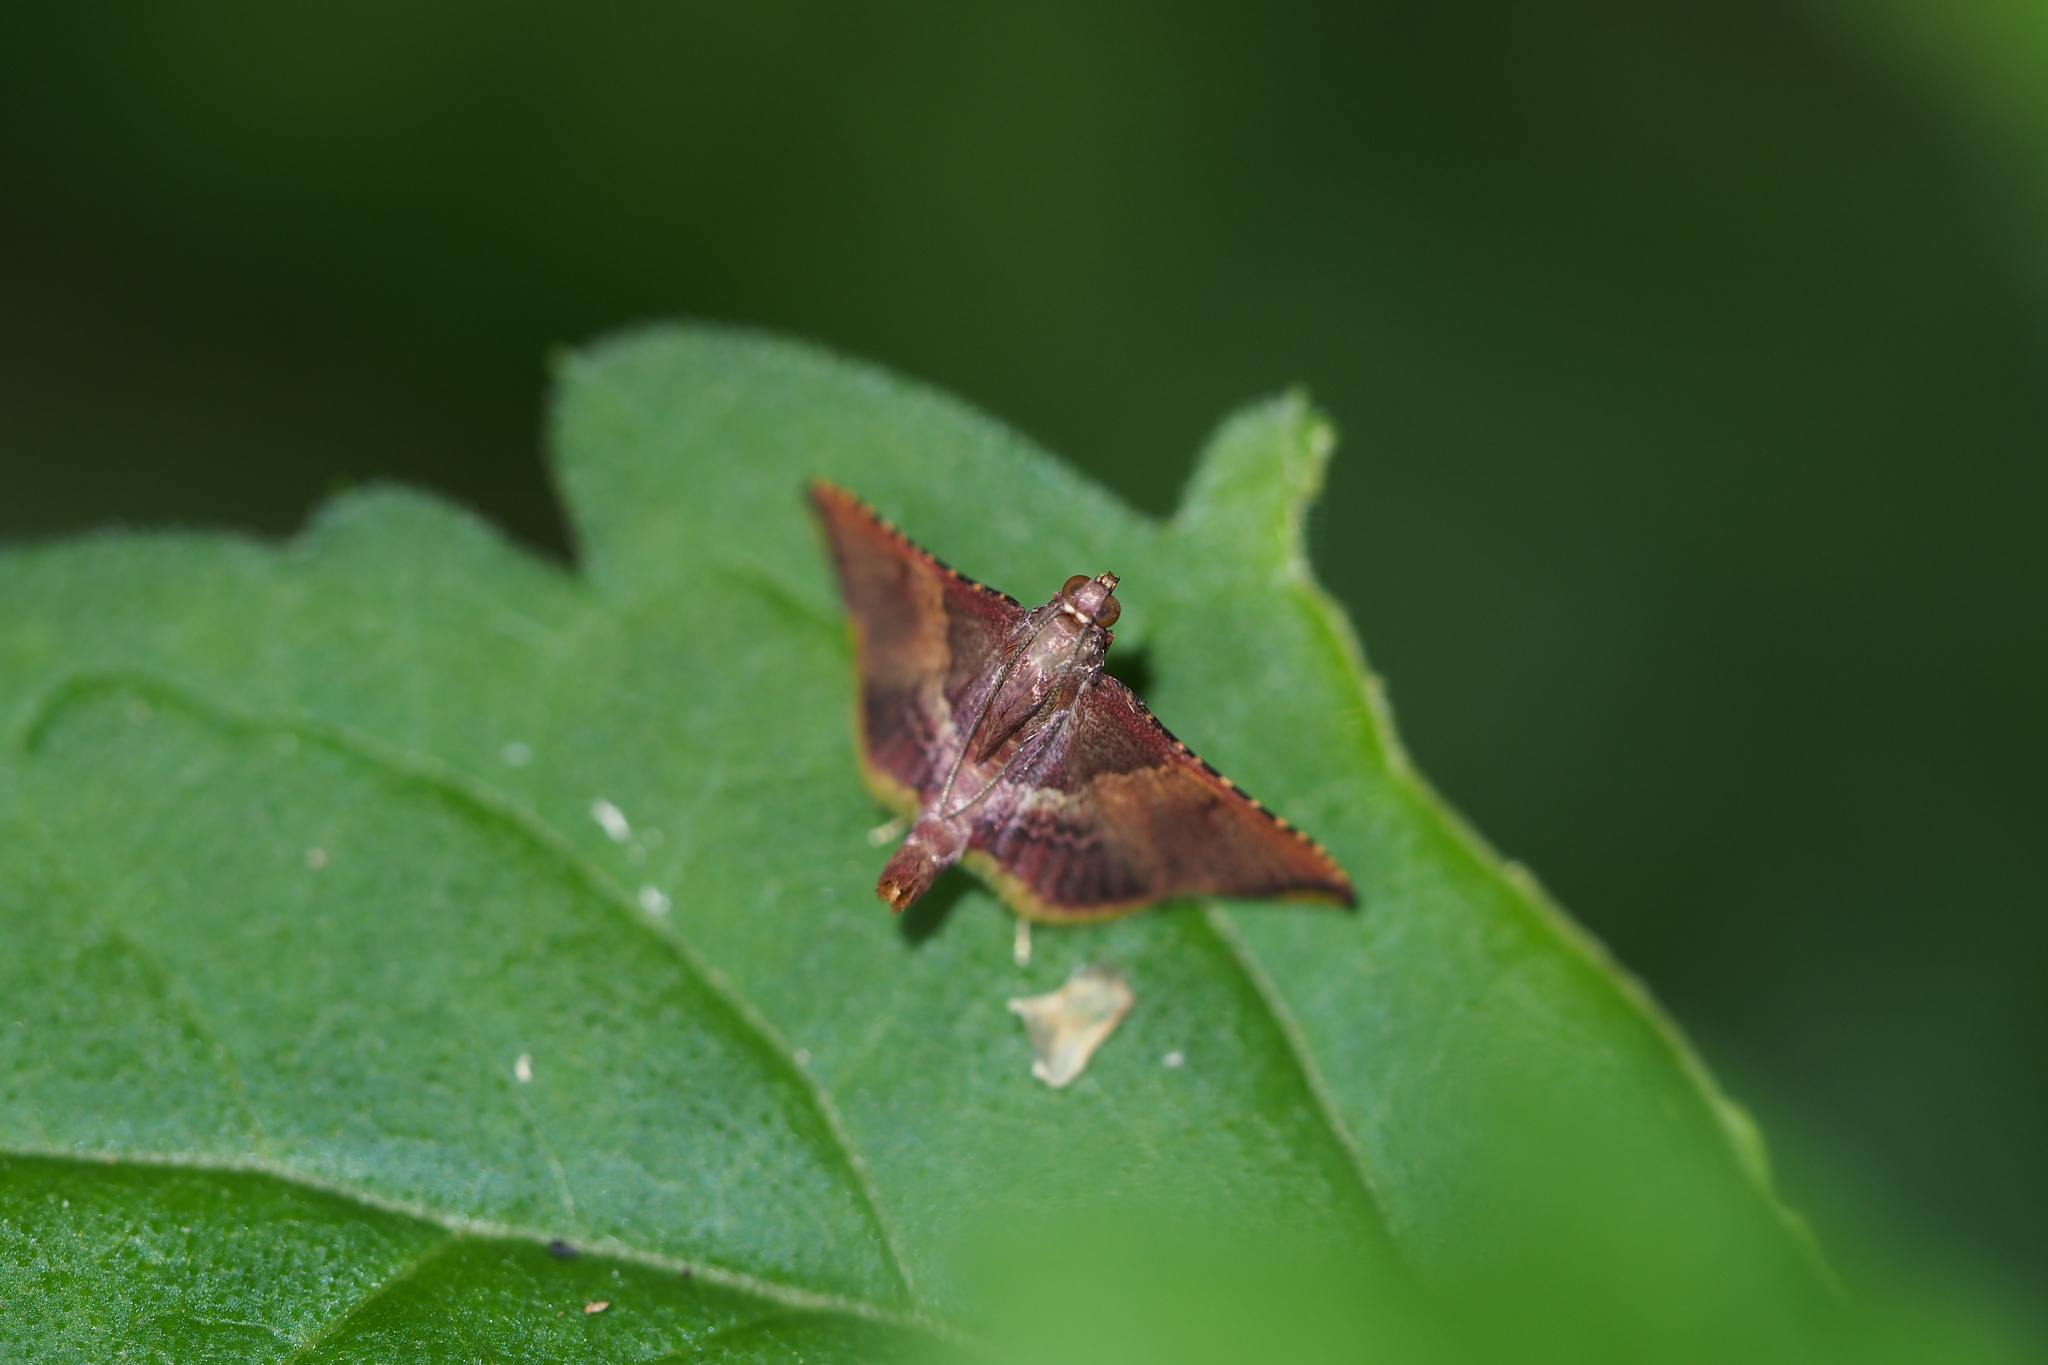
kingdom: Animalia
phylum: Arthropoda
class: Insecta
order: Lepidoptera
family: Pyralidae
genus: Endotricha
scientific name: Endotricha olivacealis
